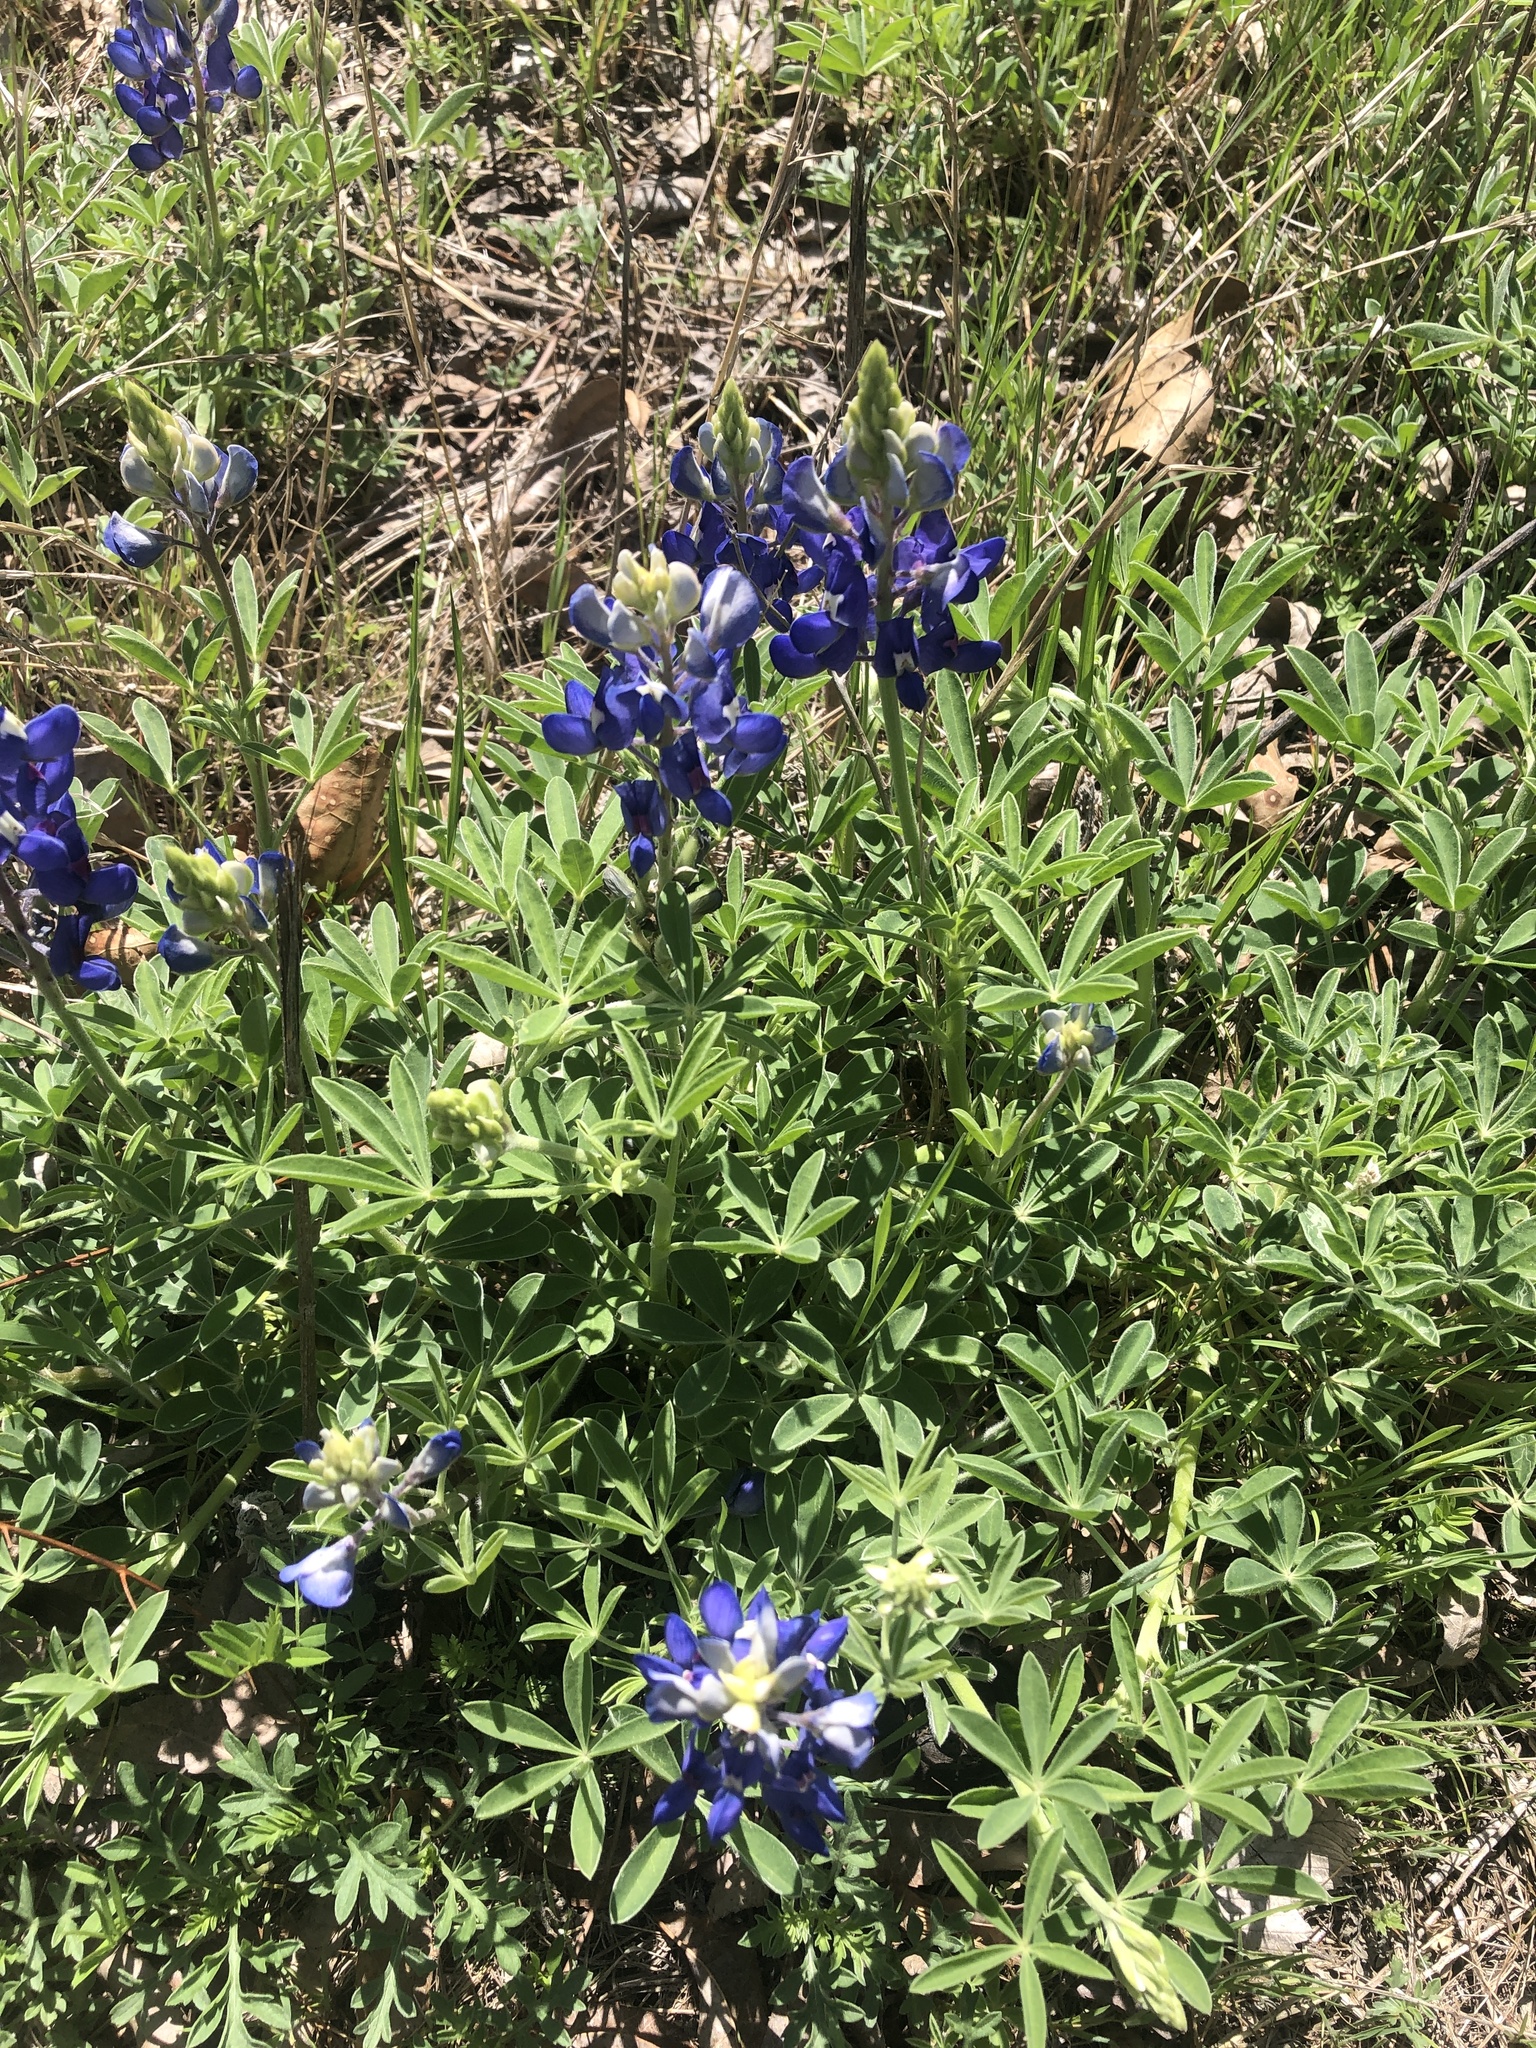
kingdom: Plantae
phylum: Tracheophyta
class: Magnoliopsida
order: Fabales
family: Fabaceae
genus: Lupinus
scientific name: Lupinus texensis
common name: Texas bluebonnet
